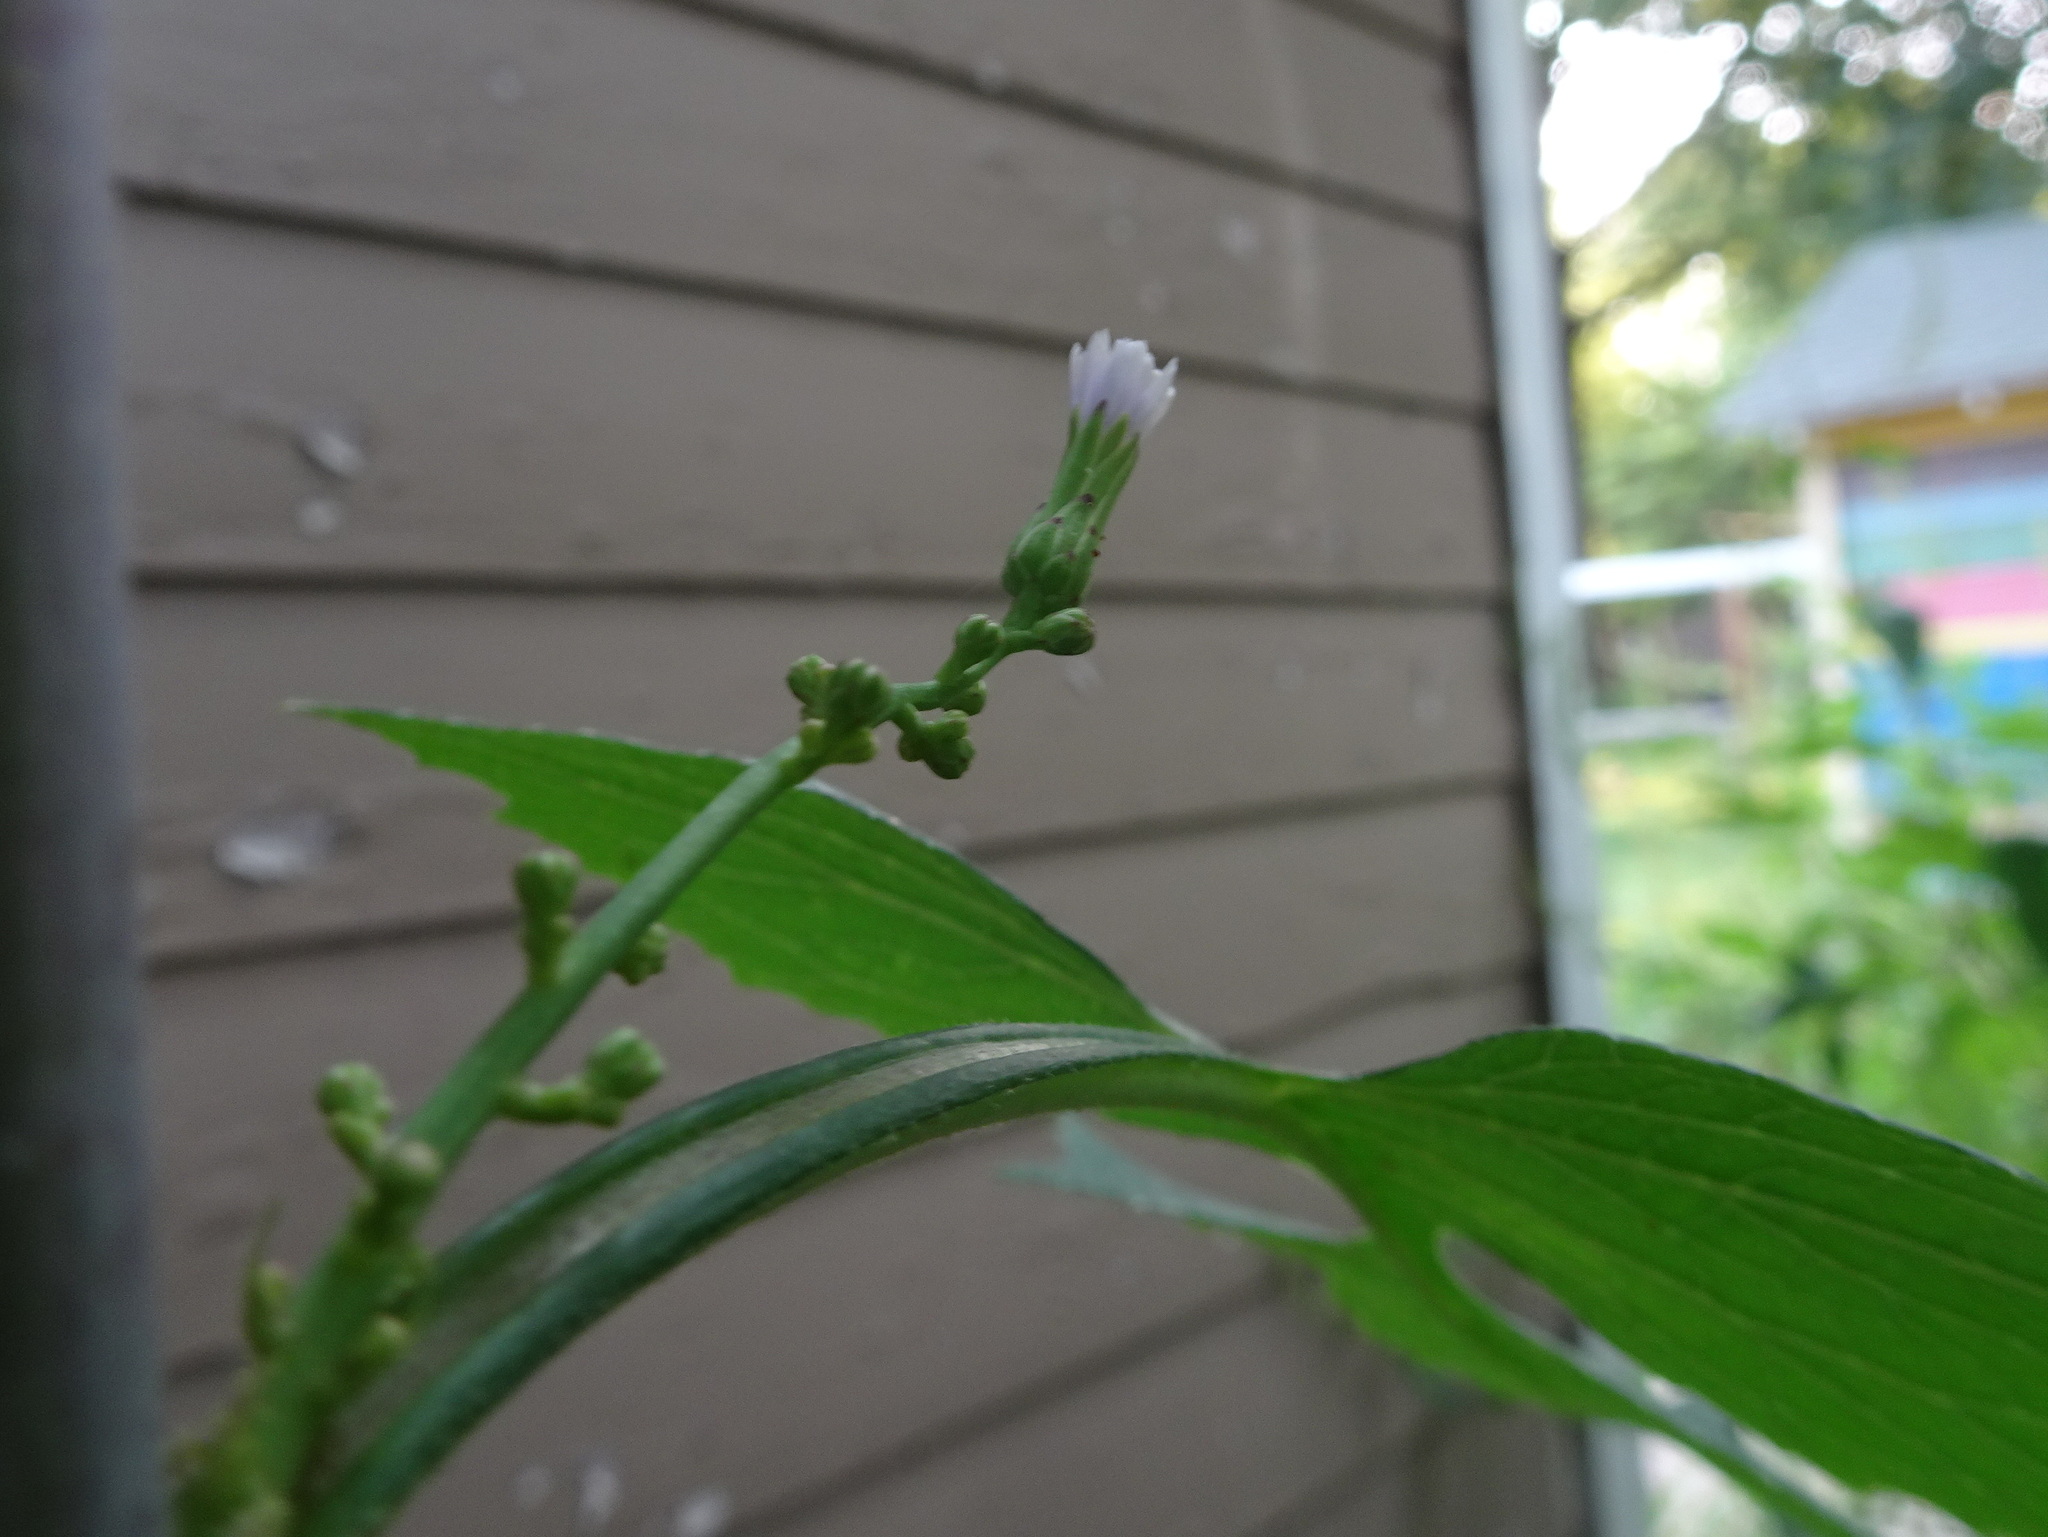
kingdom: Plantae
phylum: Tracheophyta
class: Magnoliopsida
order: Asterales
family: Asteraceae
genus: Lactuca
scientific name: Lactuca floridana
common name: Woodland lettuce
